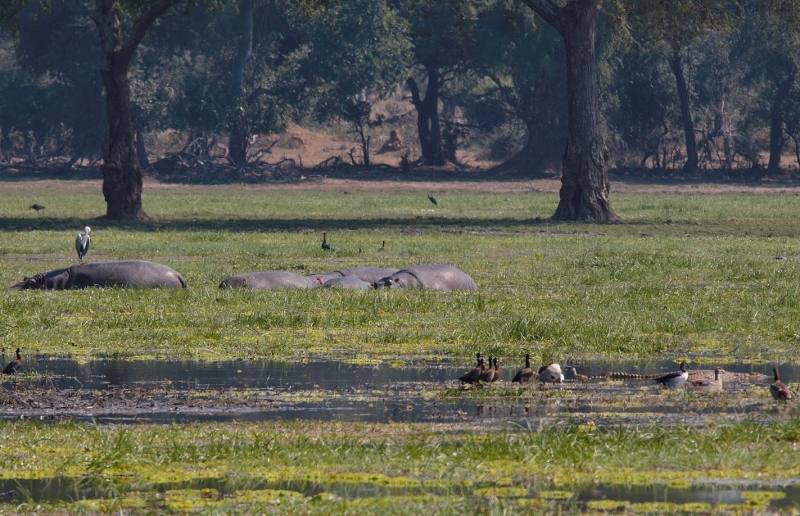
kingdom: Animalia
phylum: Chordata
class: Mammalia
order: Artiodactyla
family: Hippopotamidae
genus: Hippopotamus
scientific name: Hippopotamus amphibius
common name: Common hippopotamus
